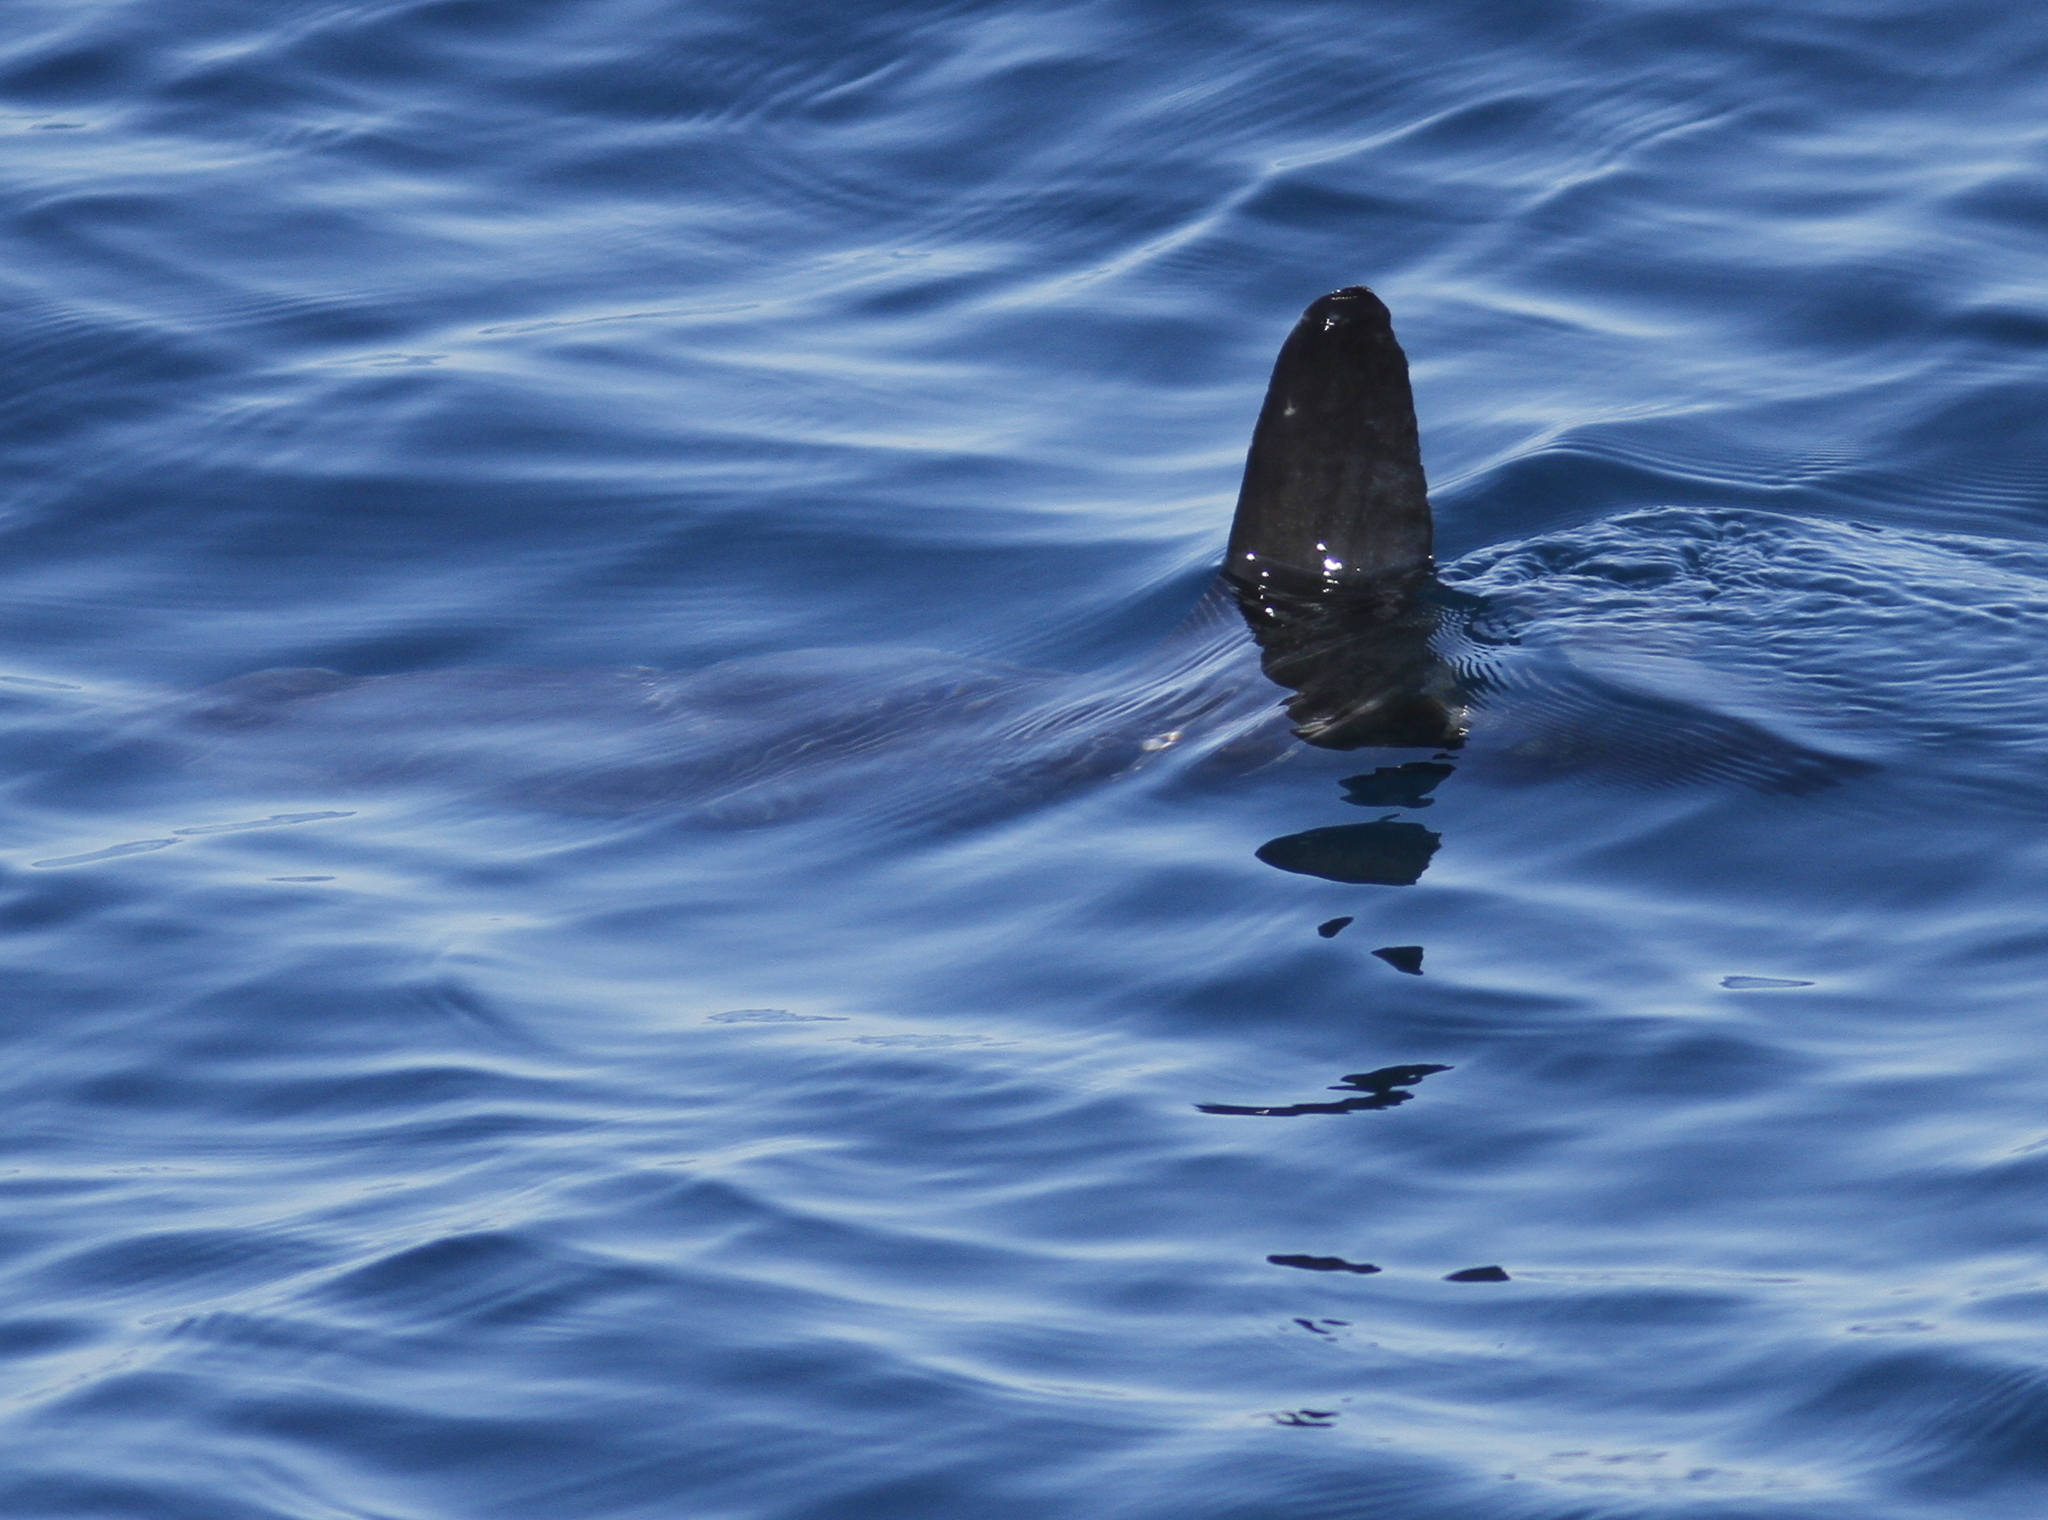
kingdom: Animalia
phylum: Chordata
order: Tetraodontiformes
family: Molidae
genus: Mola
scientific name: Mola mola
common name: Ocean sunfish
